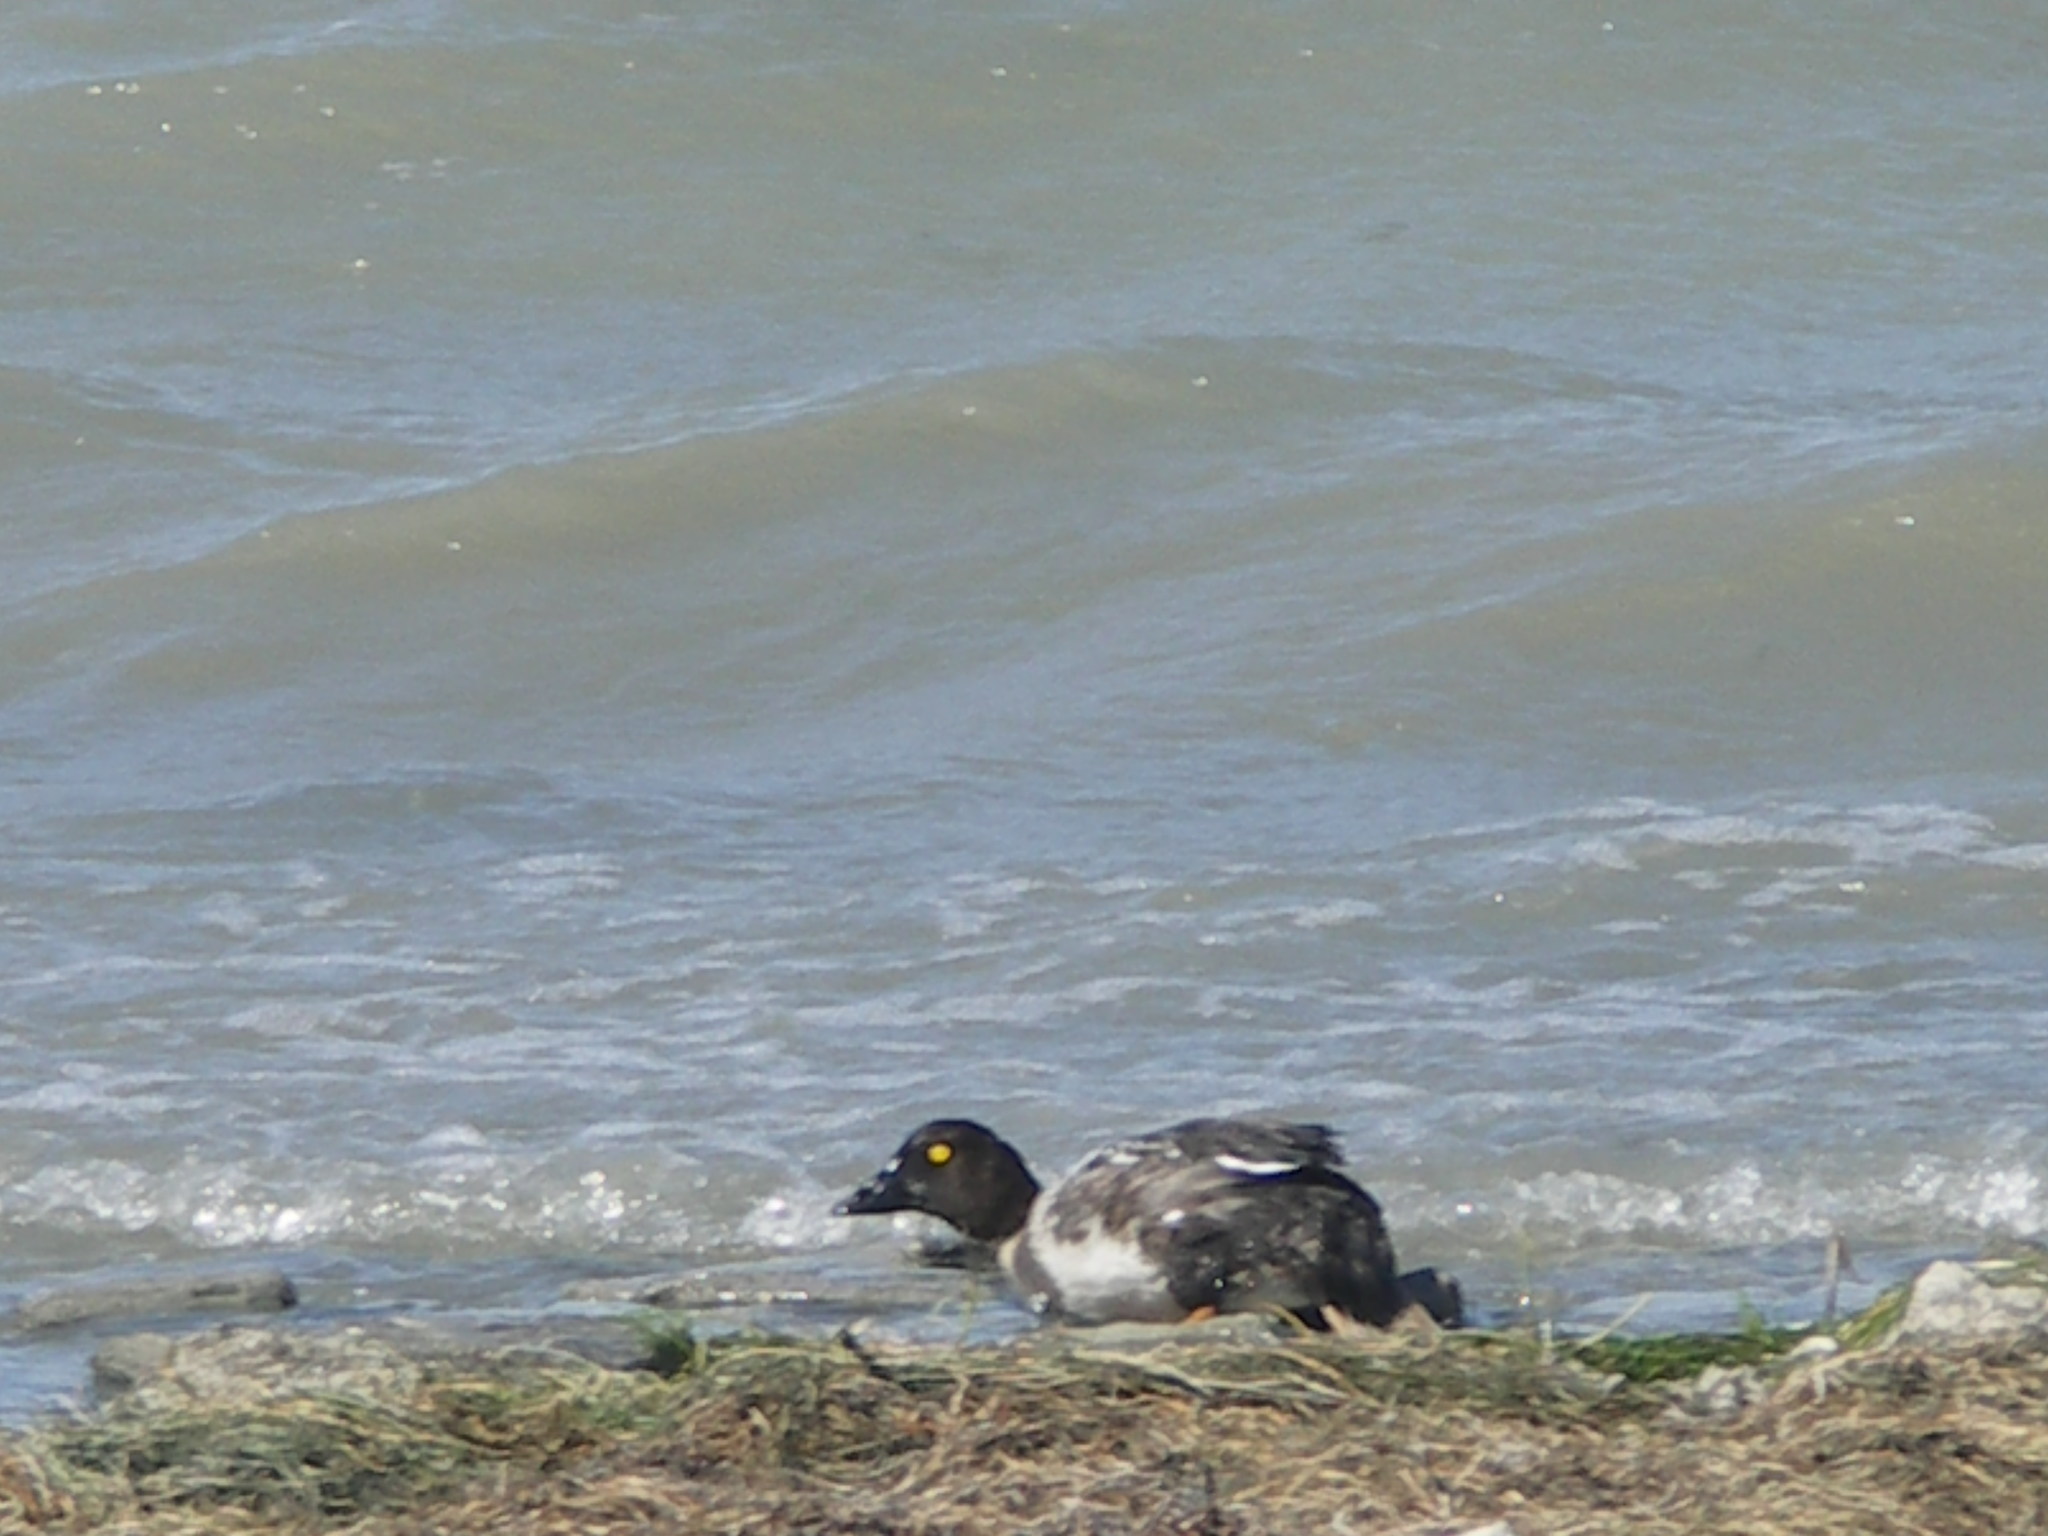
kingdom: Animalia
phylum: Chordata
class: Aves
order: Anseriformes
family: Anatidae
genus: Bucephala
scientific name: Bucephala clangula
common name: Common goldeneye
